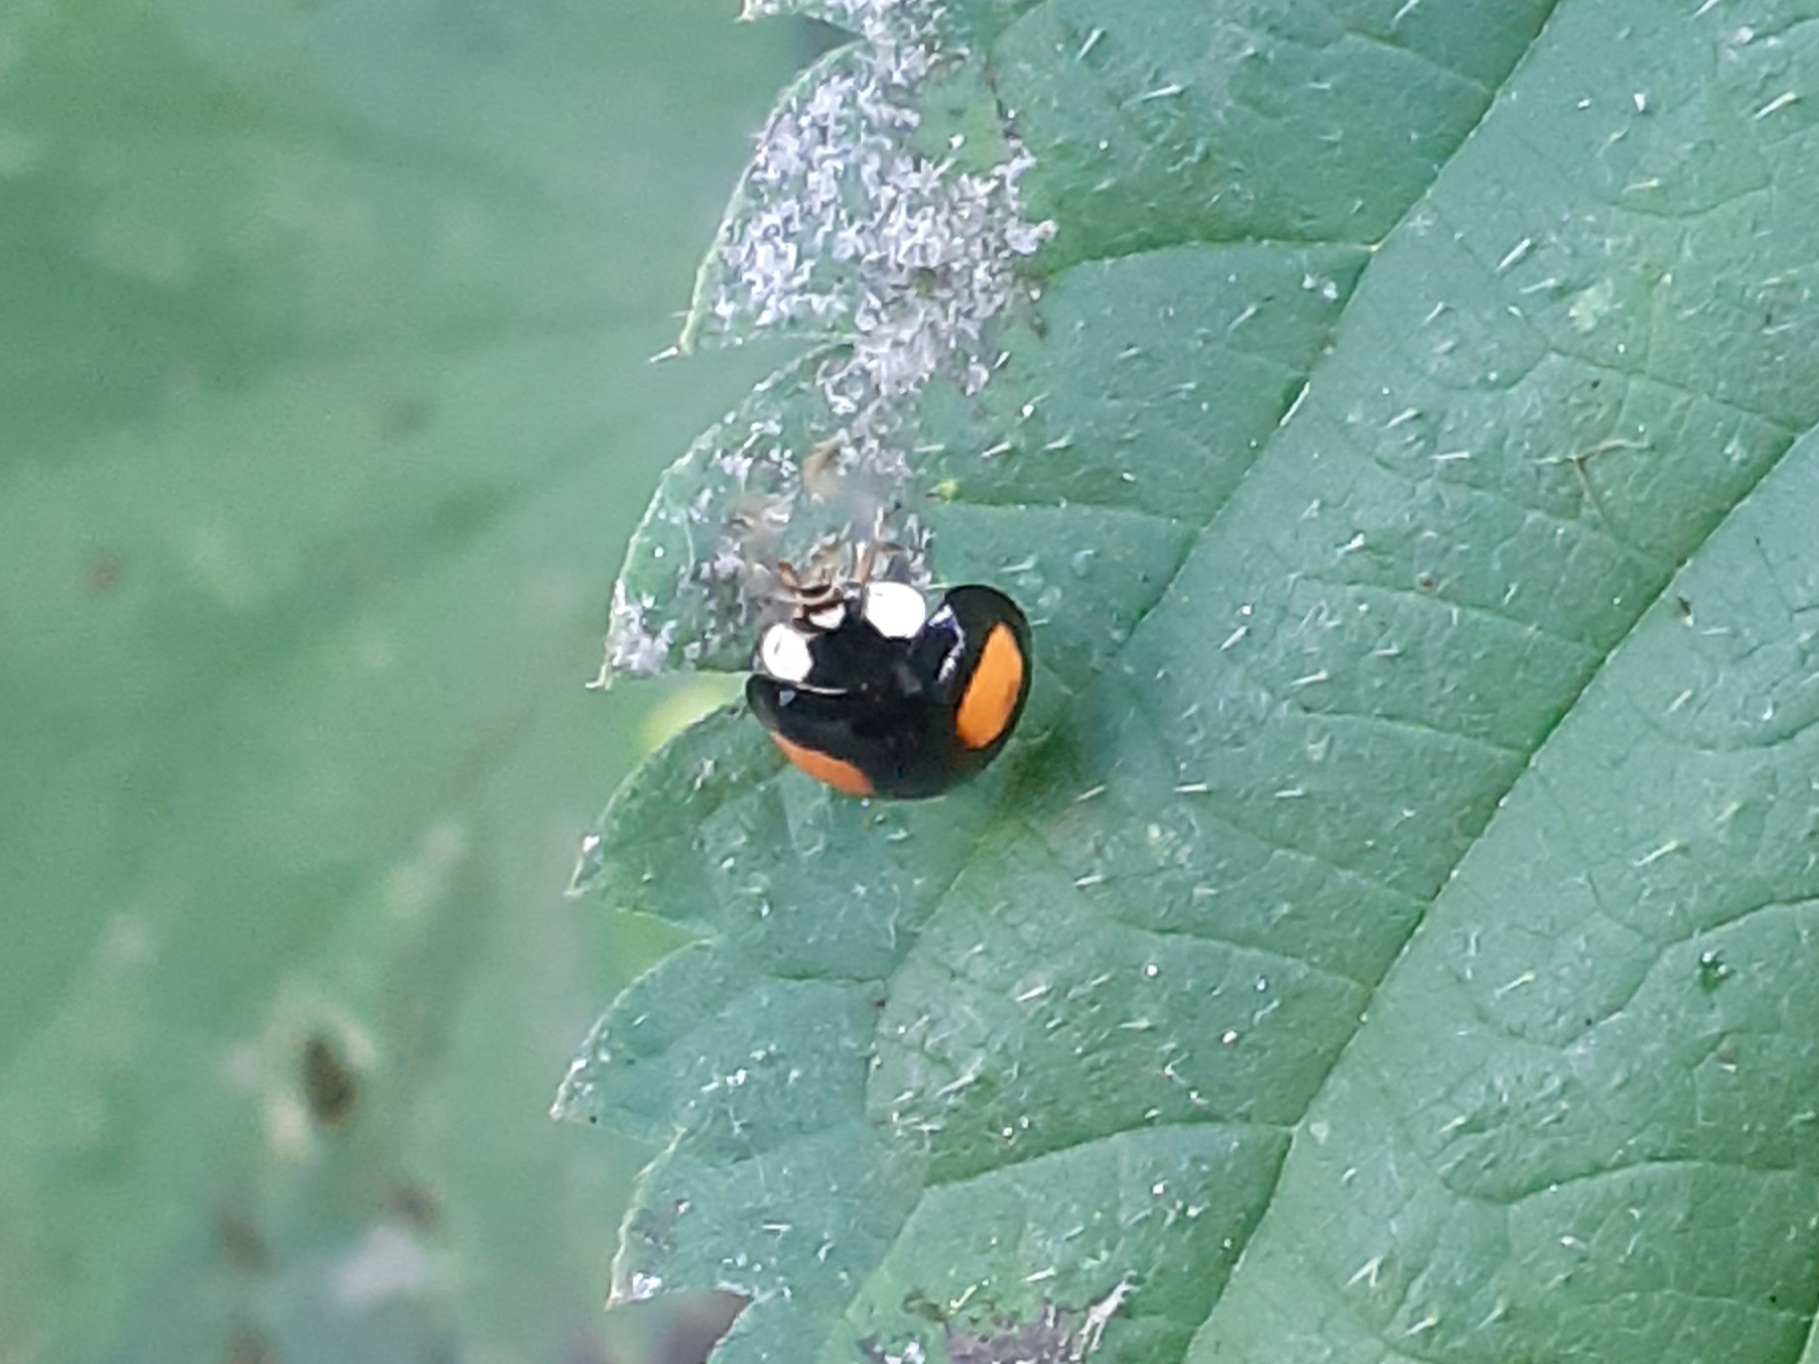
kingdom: Animalia
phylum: Arthropoda
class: Insecta
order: Coleoptera
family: Coccinellidae
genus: Harmonia
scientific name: Harmonia axyridis
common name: Harlequin ladybird
